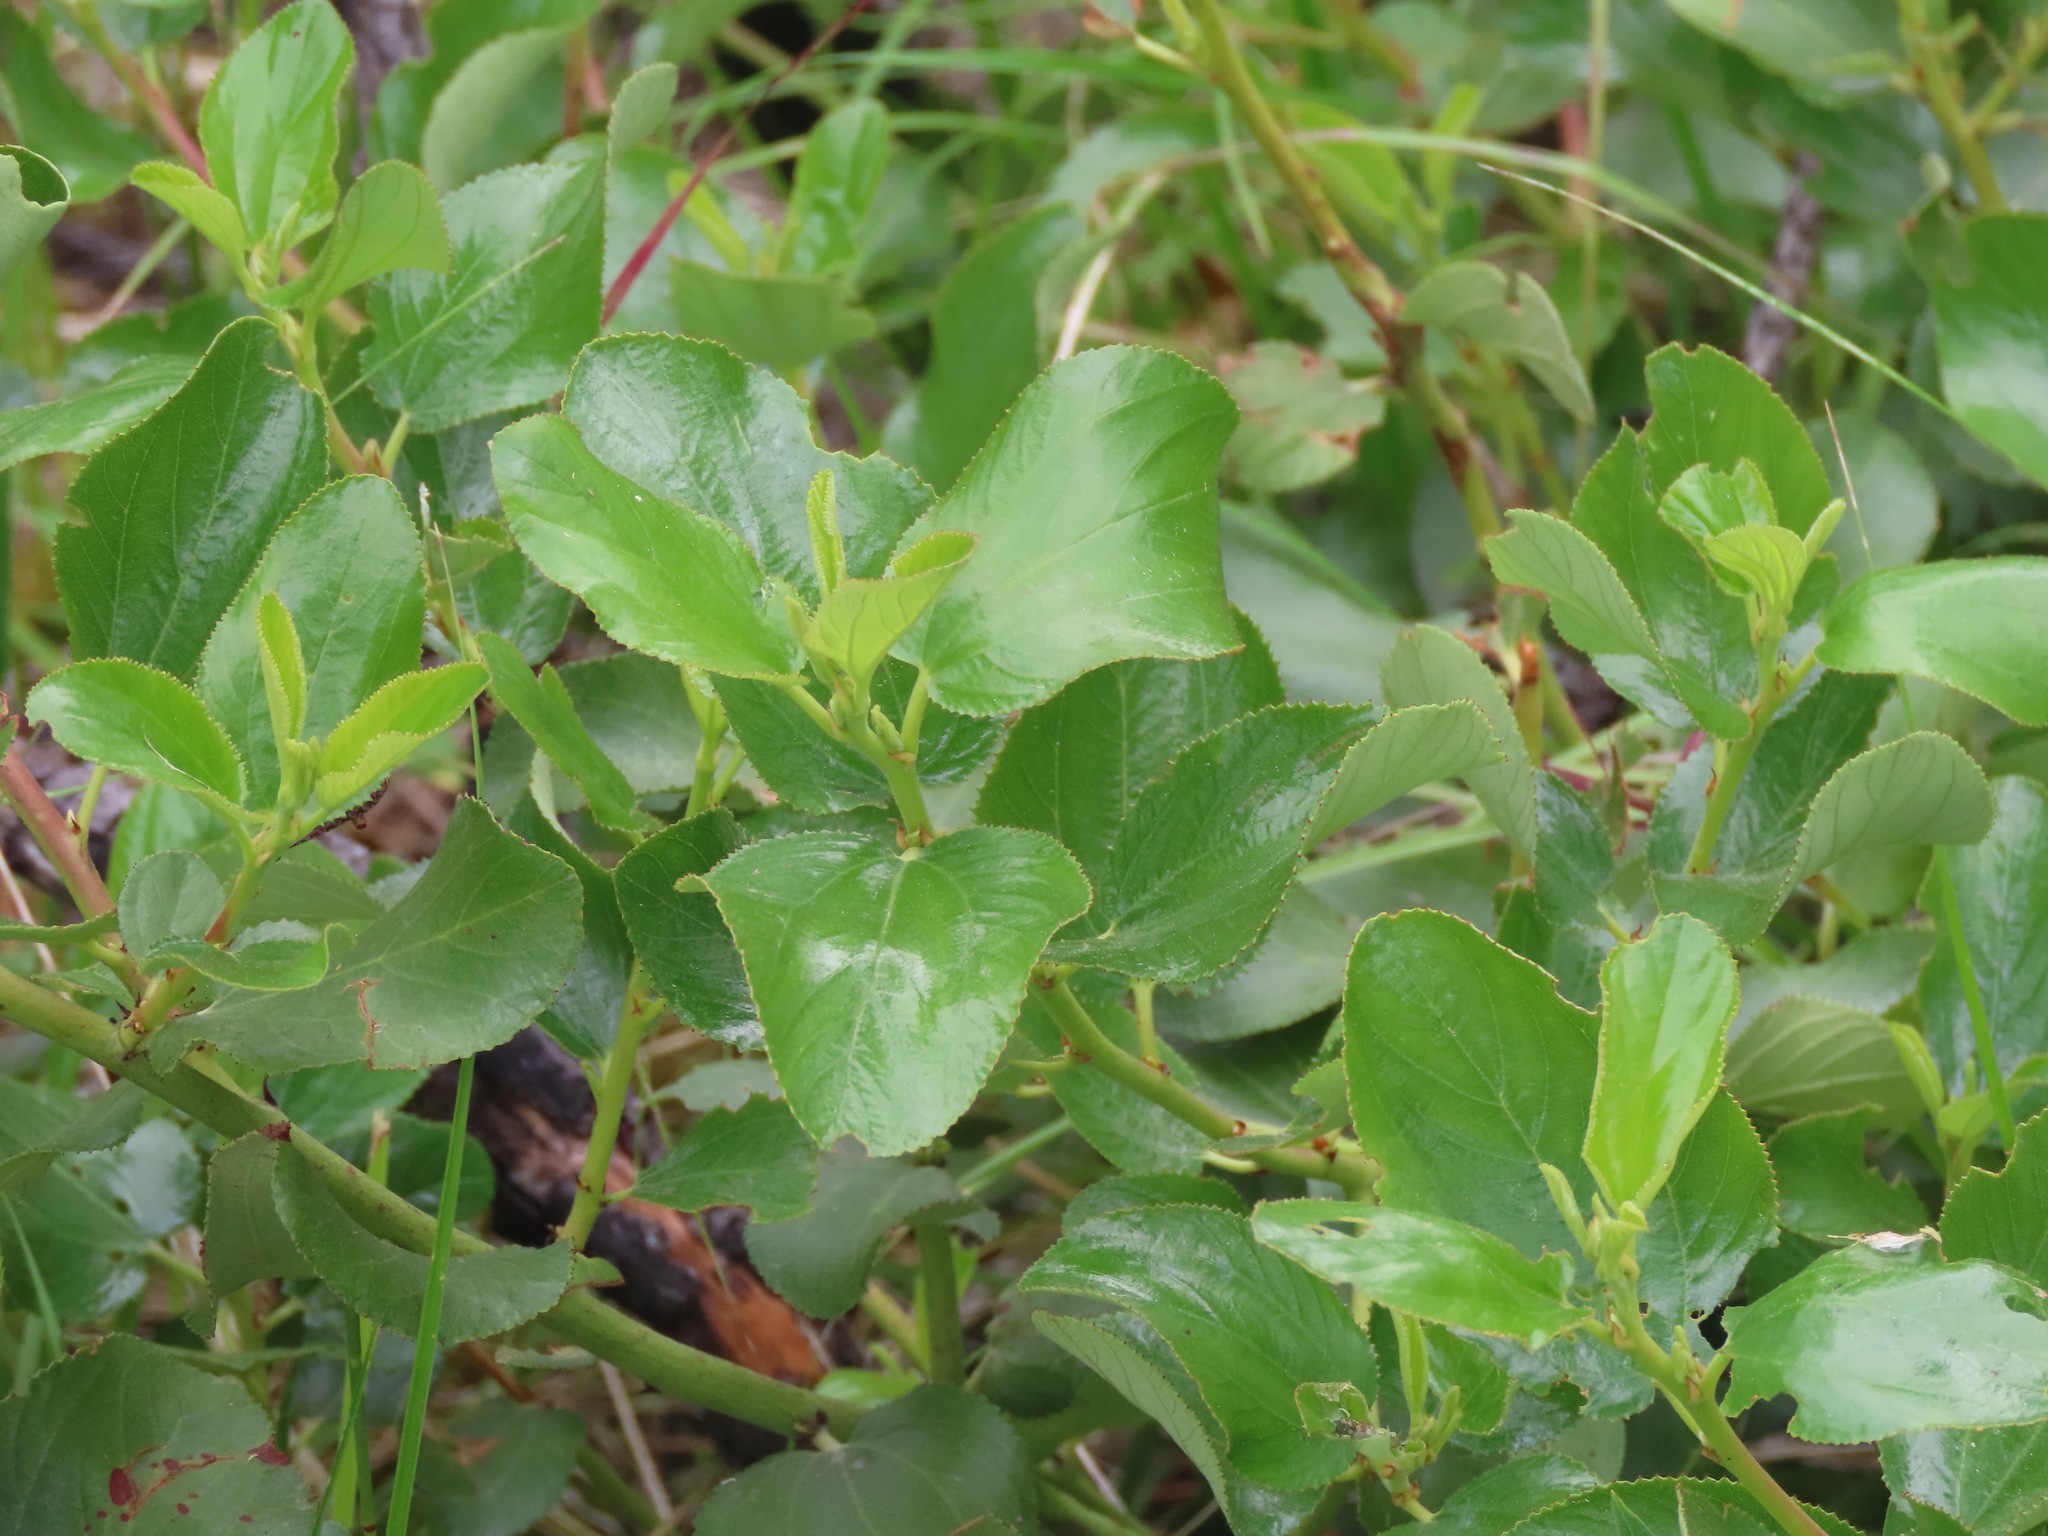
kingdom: Plantae
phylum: Tracheophyta
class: Magnoliopsida
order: Rosales
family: Rhamnaceae
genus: Ceanothus
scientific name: Ceanothus velutinus
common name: Snowbrush
